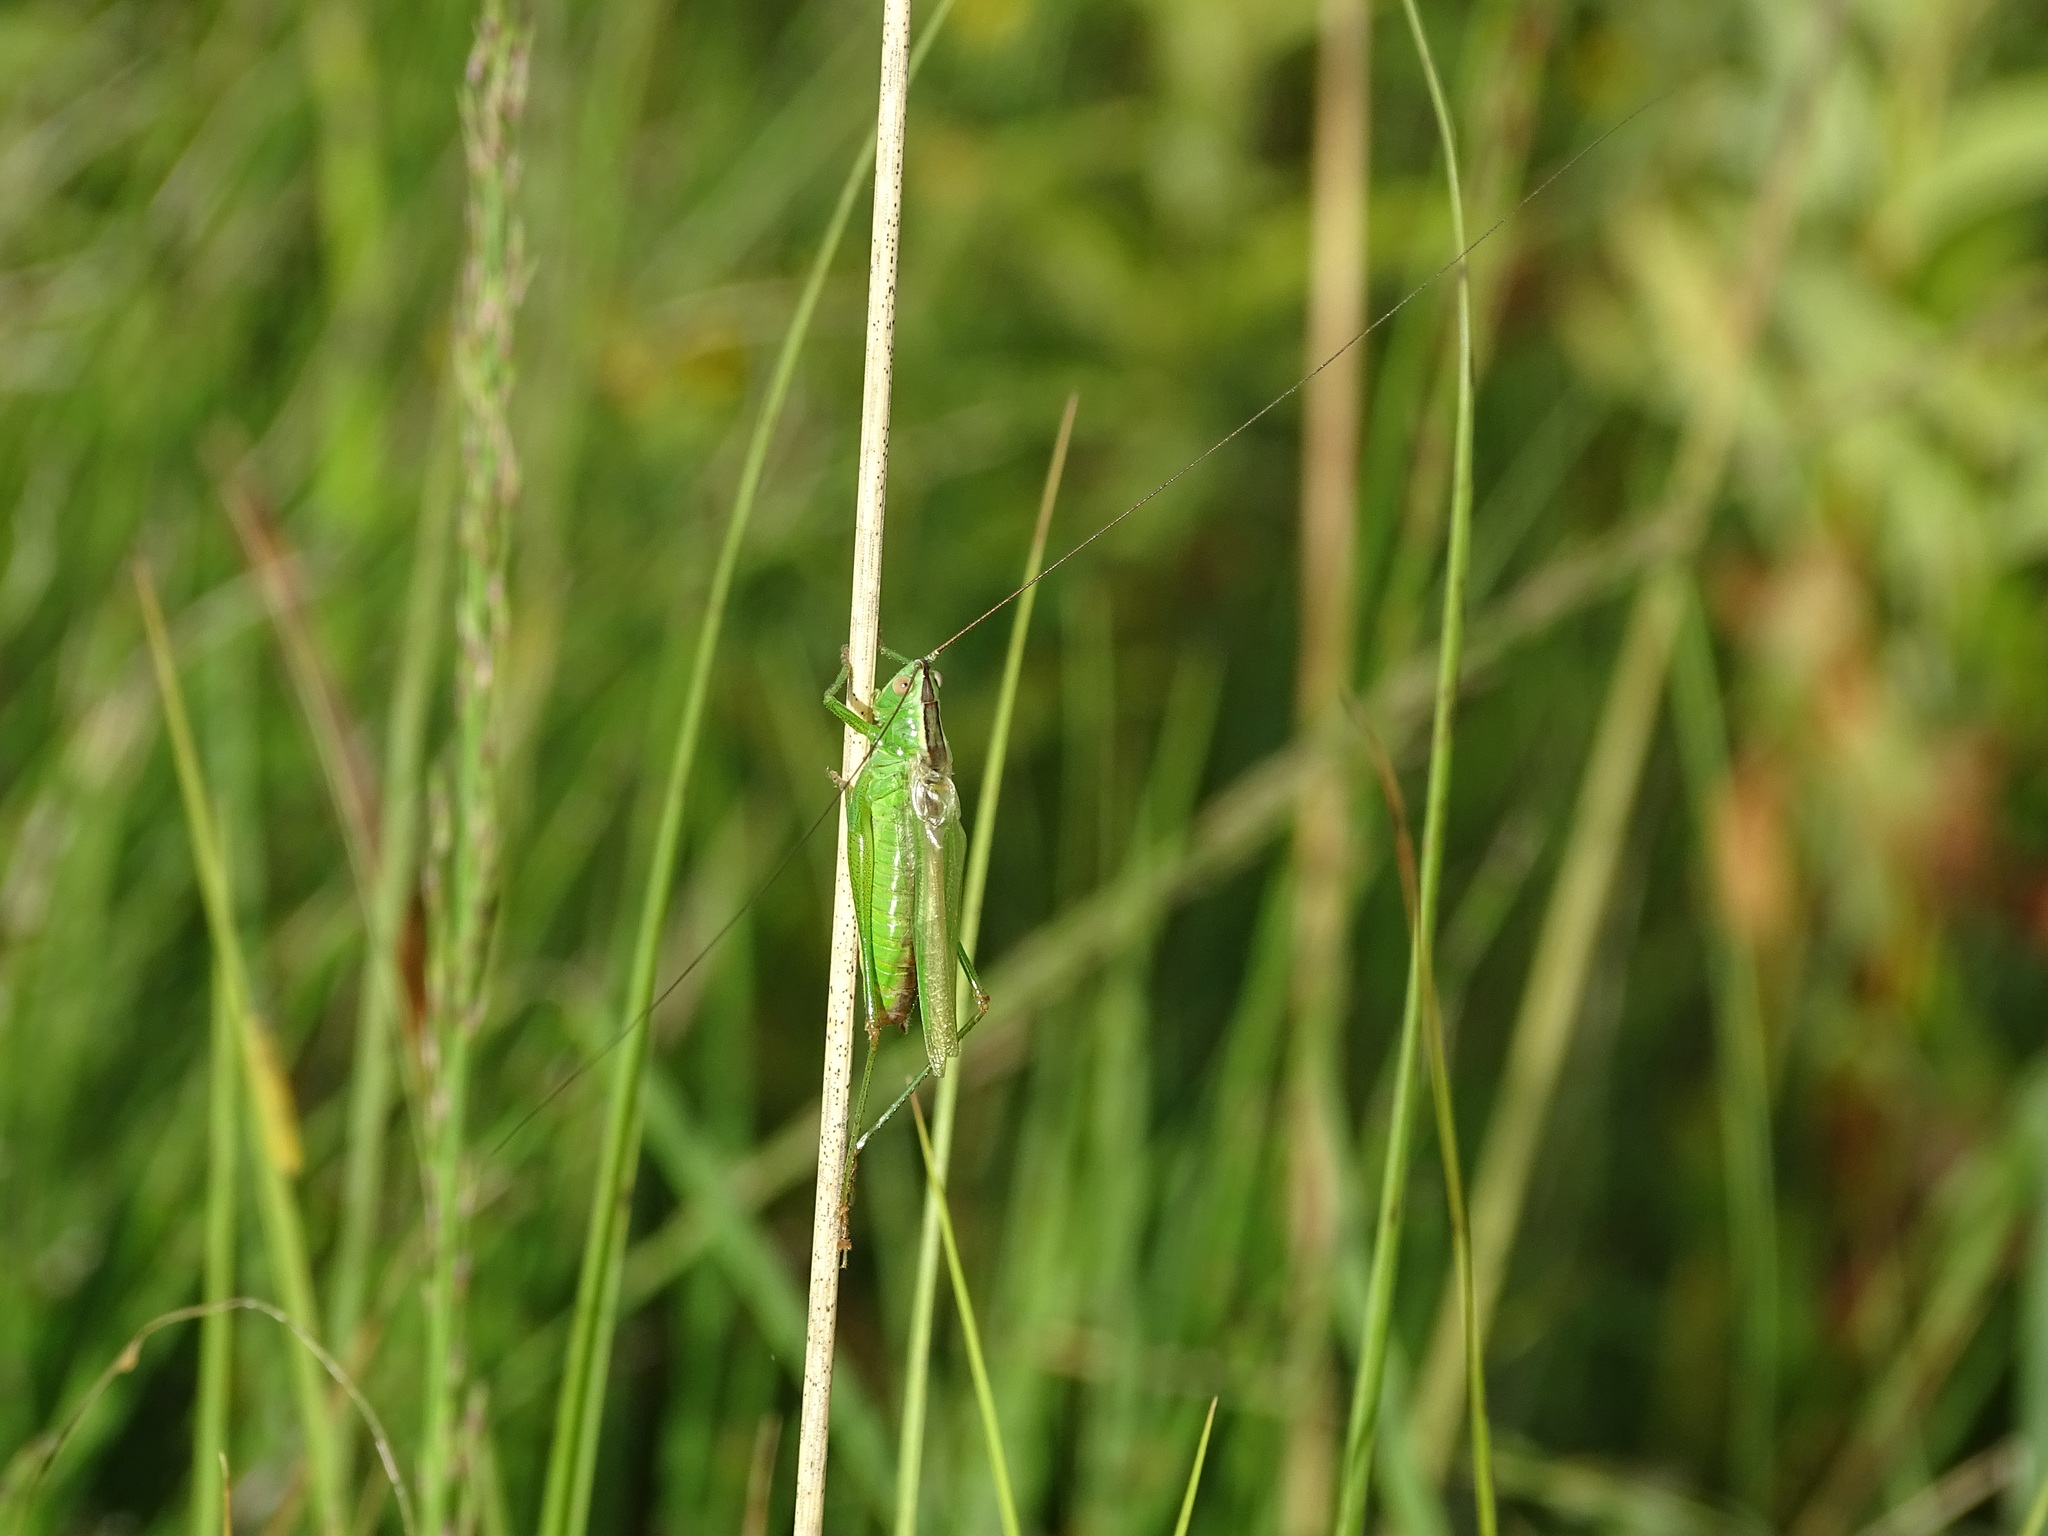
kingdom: Animalia
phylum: Arthropoda
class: Insecta
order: Orthoptera
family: Tettigoniidae
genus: Conocephalus
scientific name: Conocephalus fuscus
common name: Long-winged conehead
